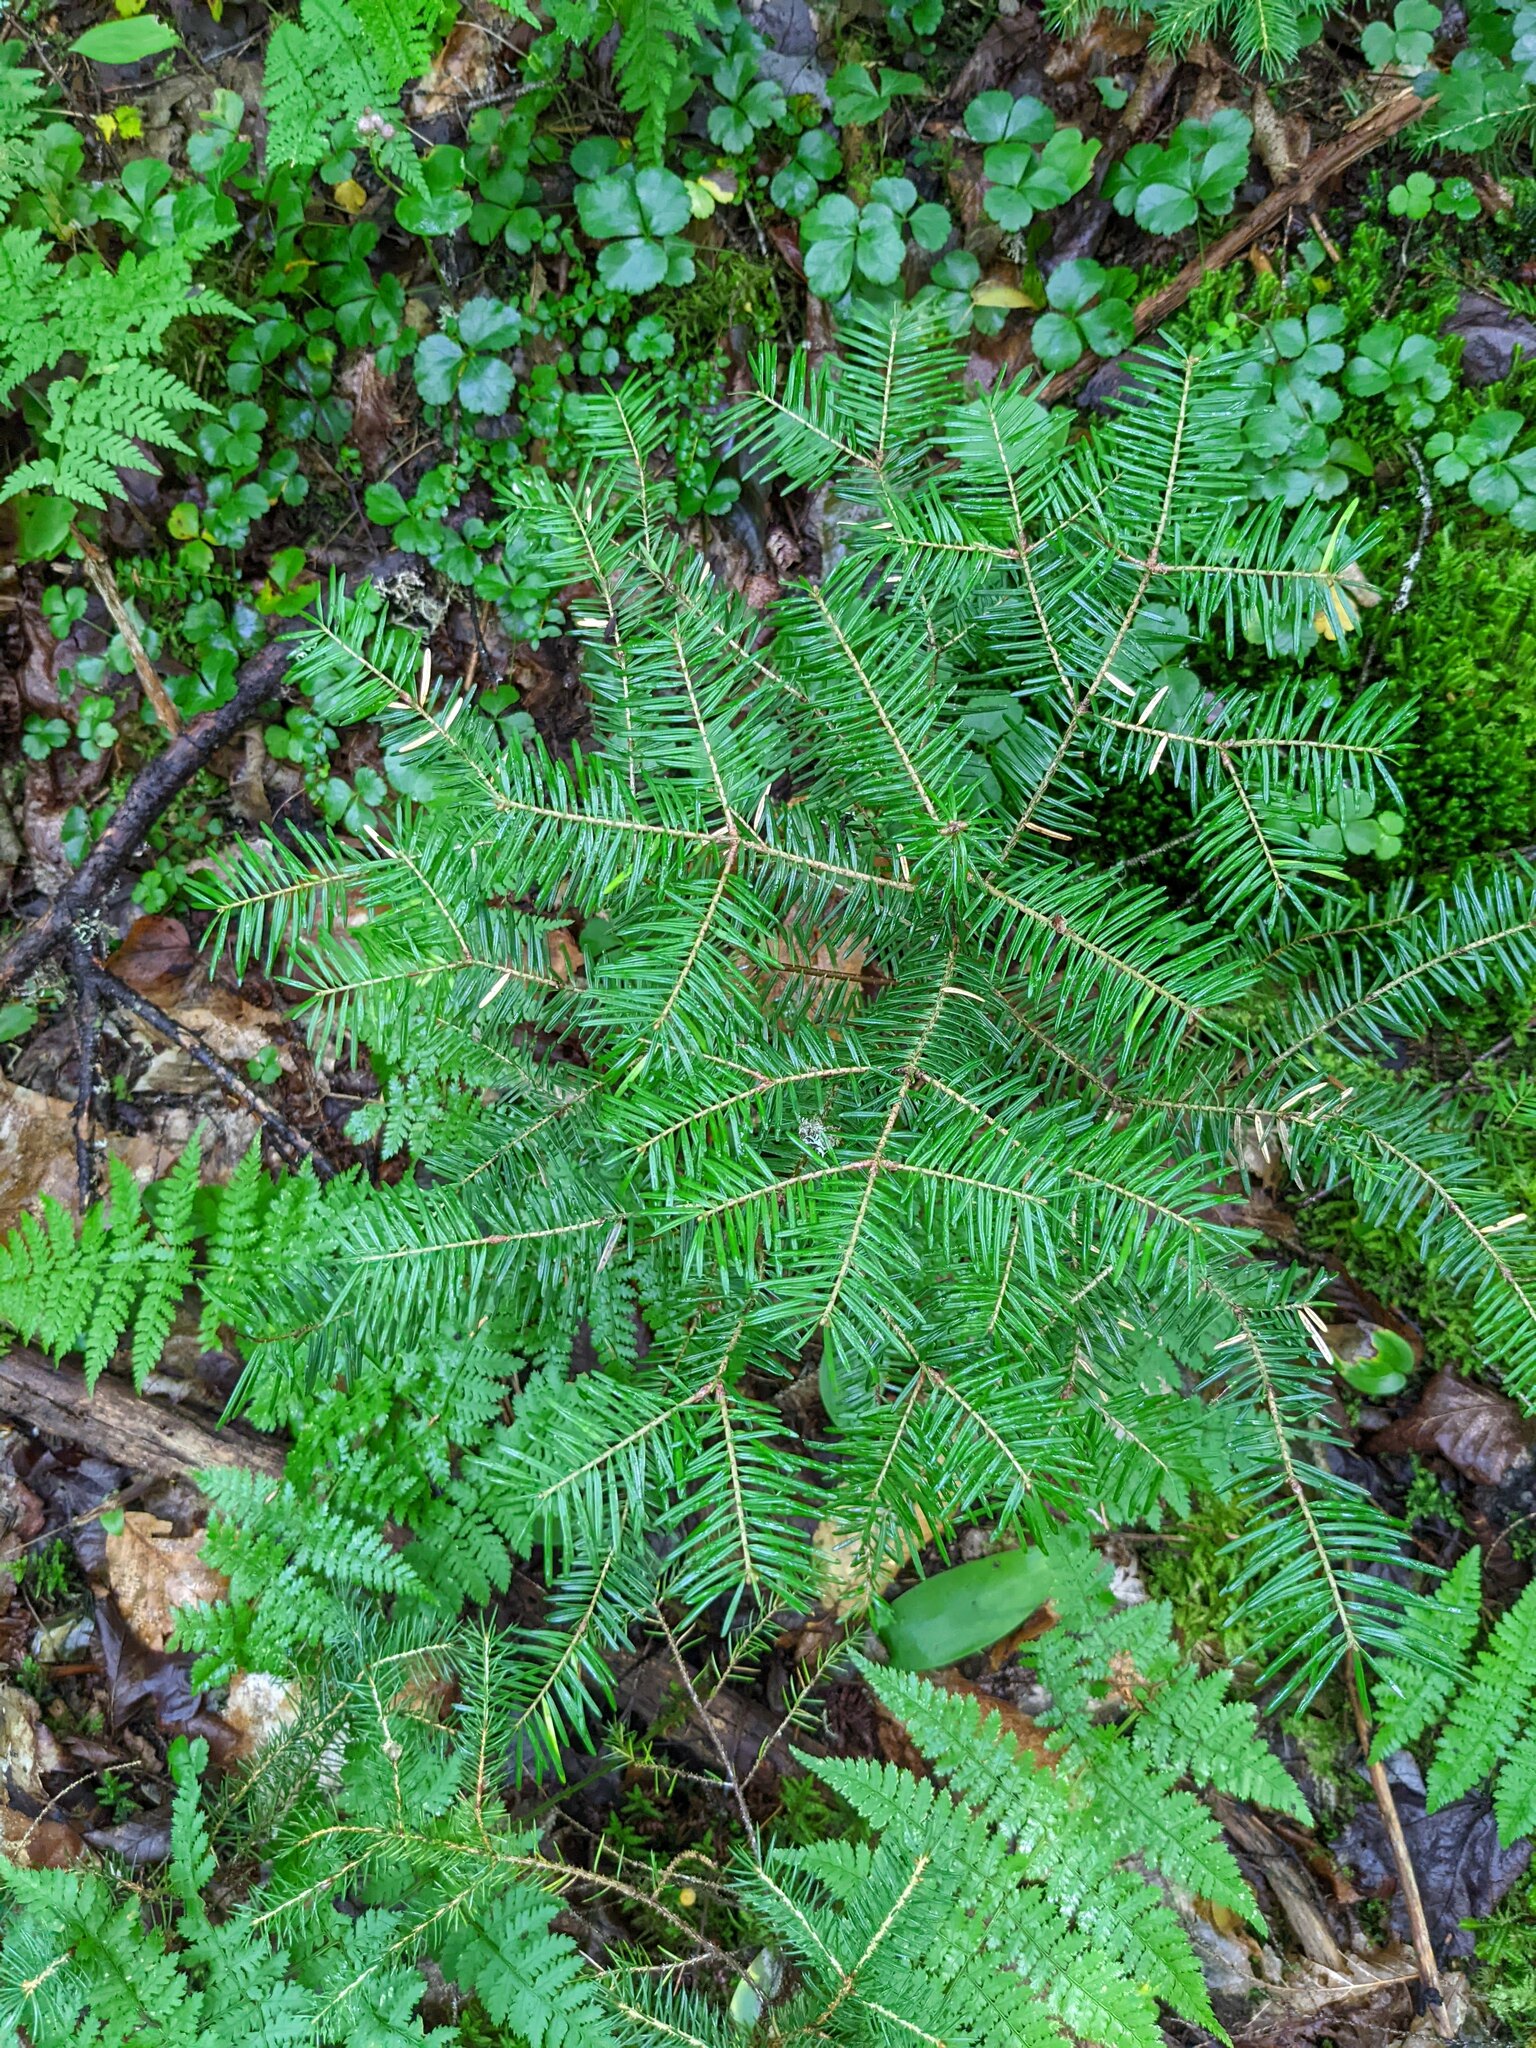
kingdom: Plantae
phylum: Tracheophyta
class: Pinopsida
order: Pinales
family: Pinaceae
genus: Abies
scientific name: Abies balsamea
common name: Balsam fir
